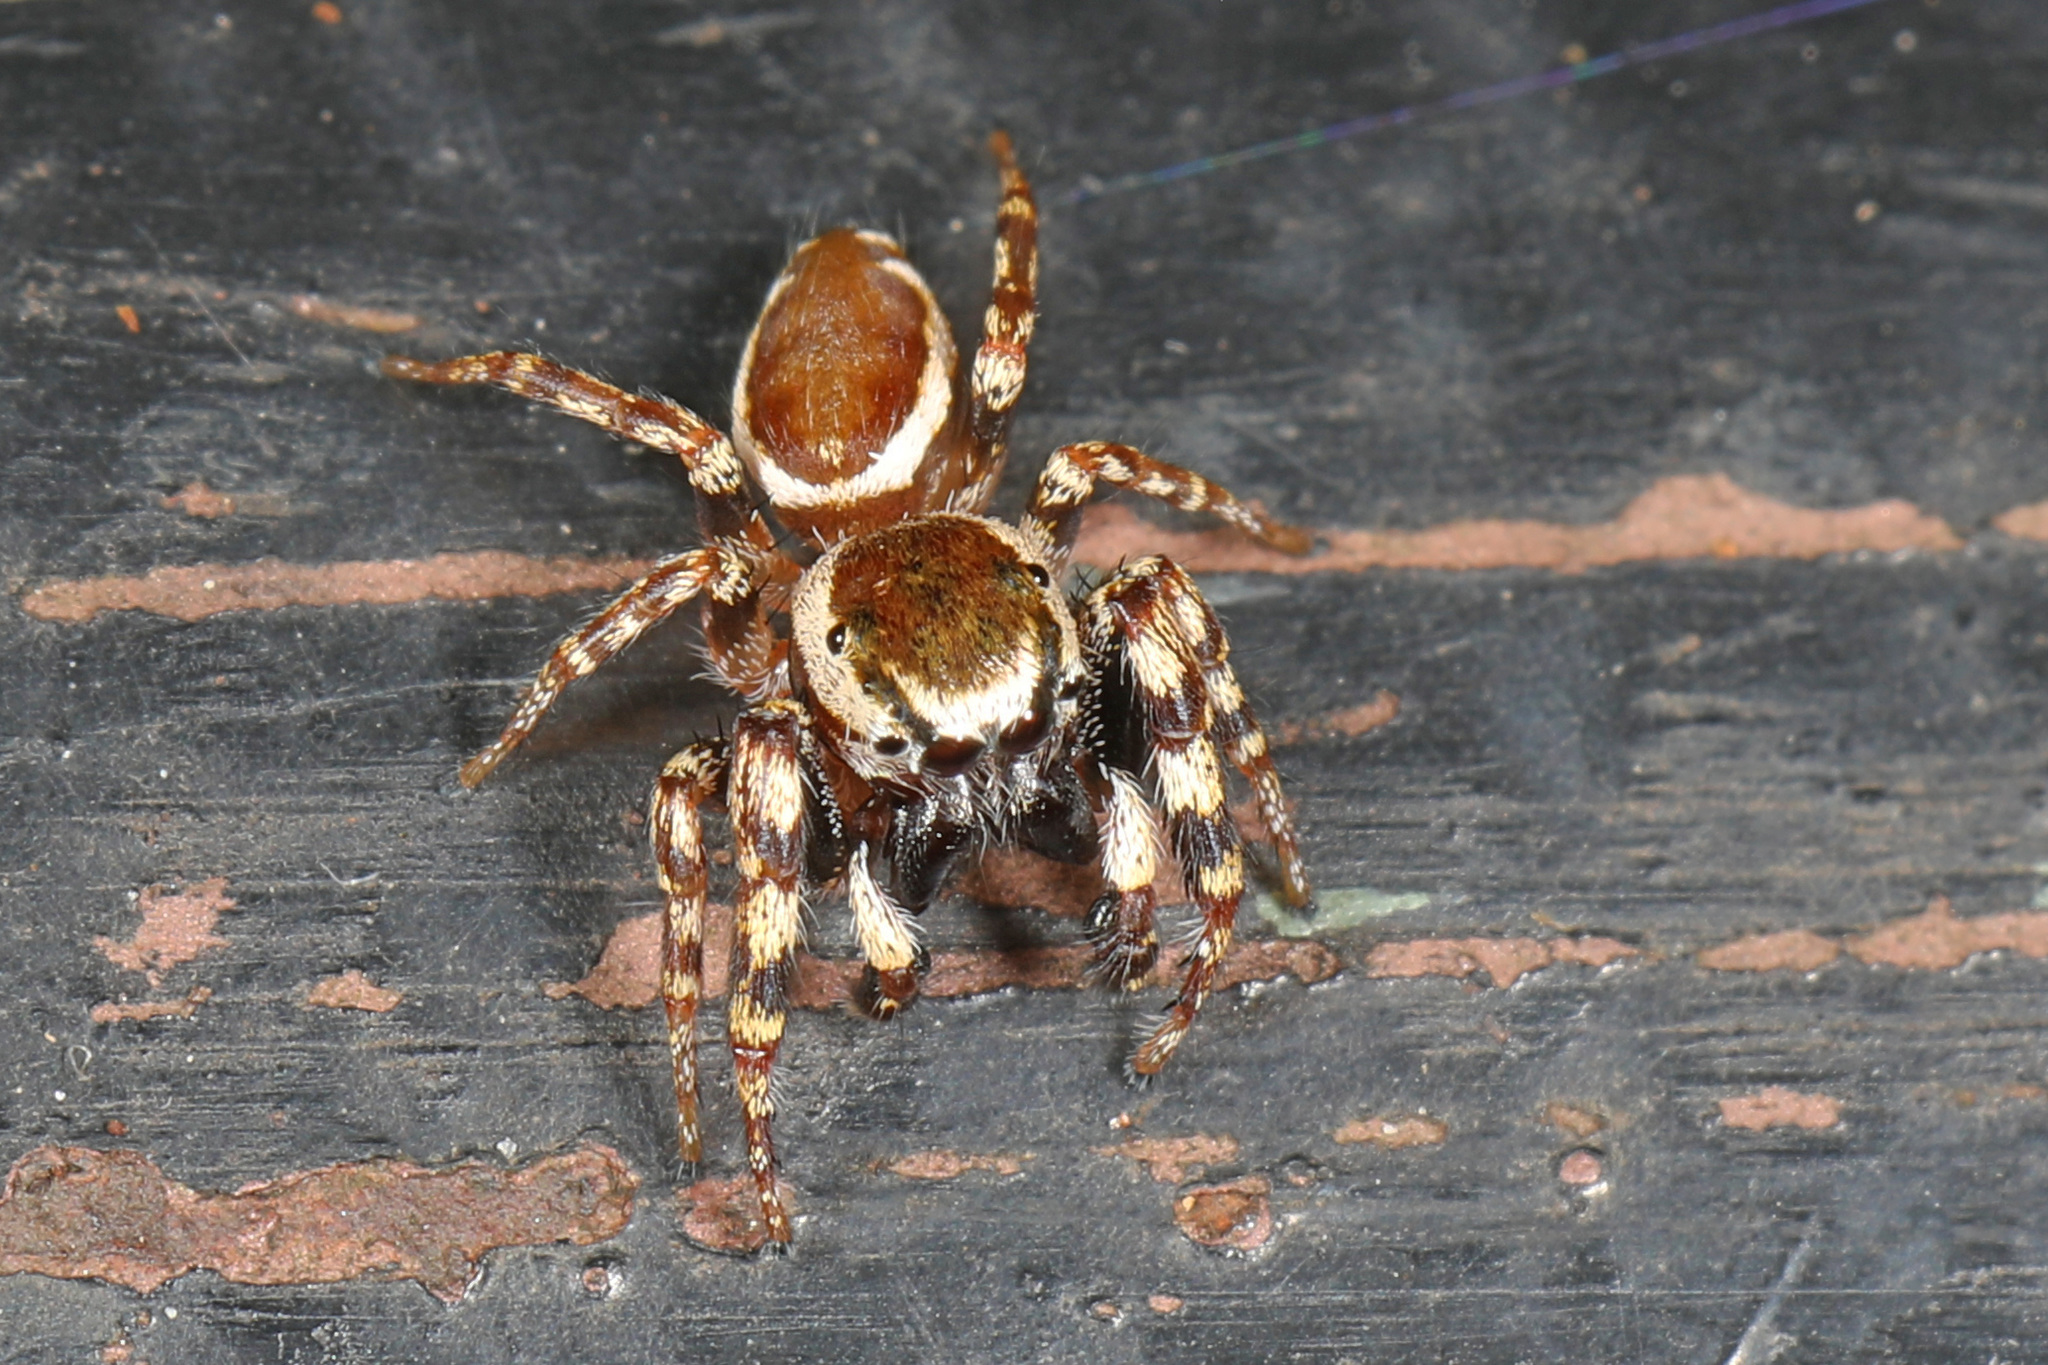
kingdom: Animalia
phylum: Arthropoda
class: Arachnida
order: Araneae
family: Salticidae
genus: Pelegrina
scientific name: Pelegrina proterva
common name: Common white-cheeked jumping spider
